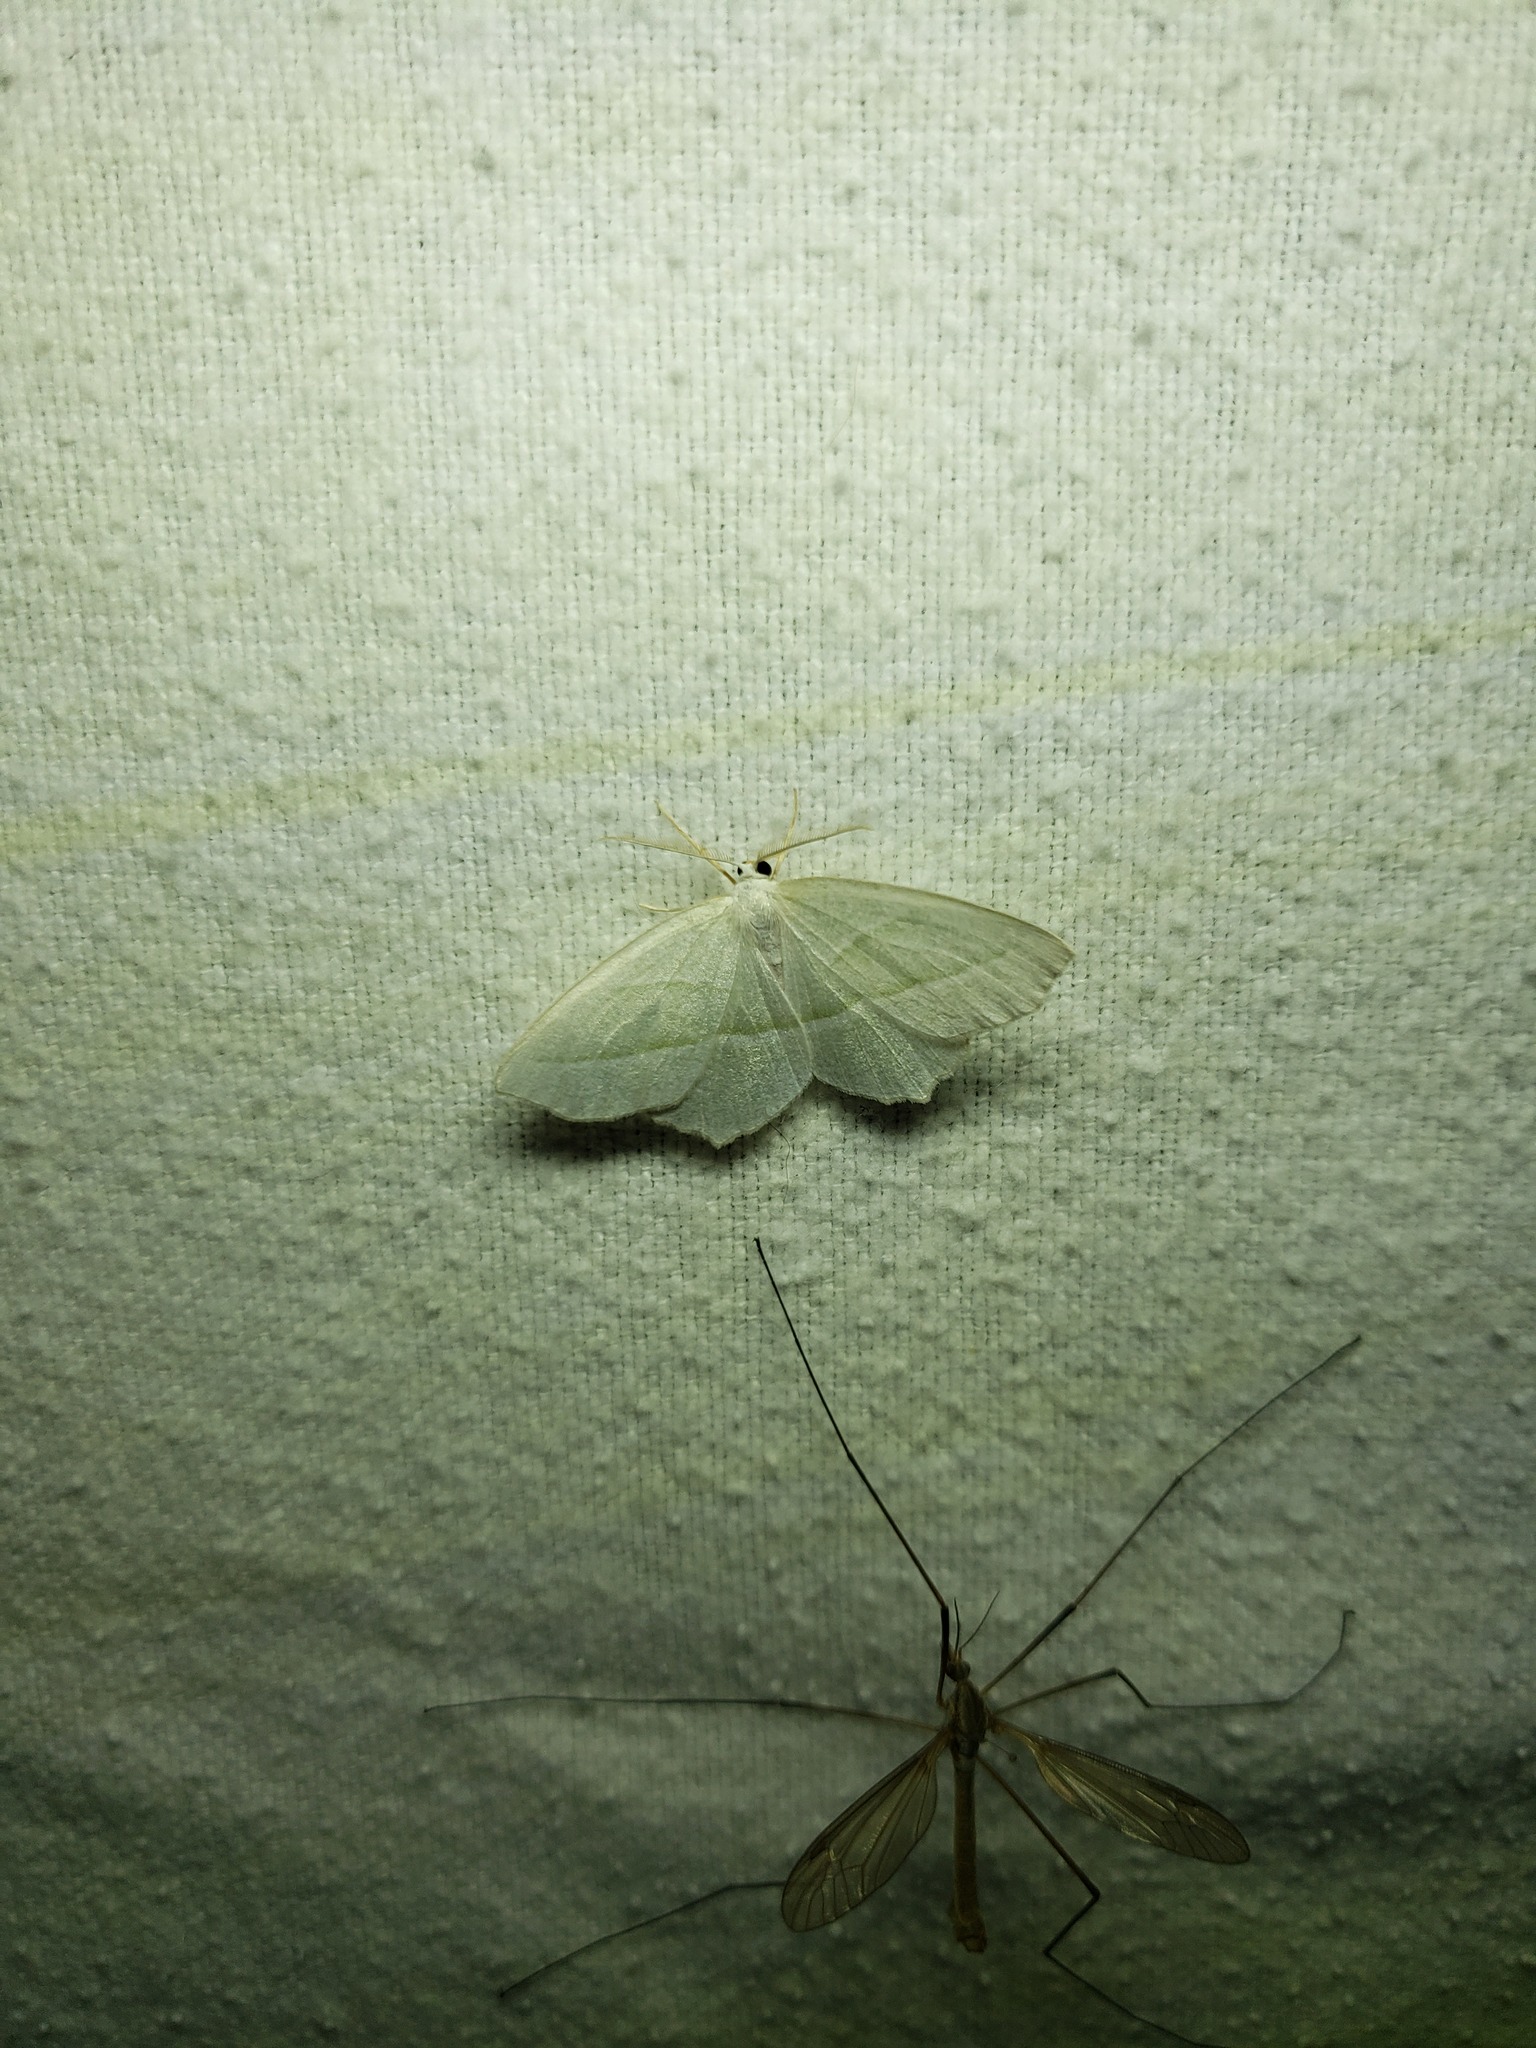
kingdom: Animalia
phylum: Arthropoda
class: Insecta
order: Lepidoptera
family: Geometridae
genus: Campaea
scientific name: Campaea perlata
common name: Fringed looper
